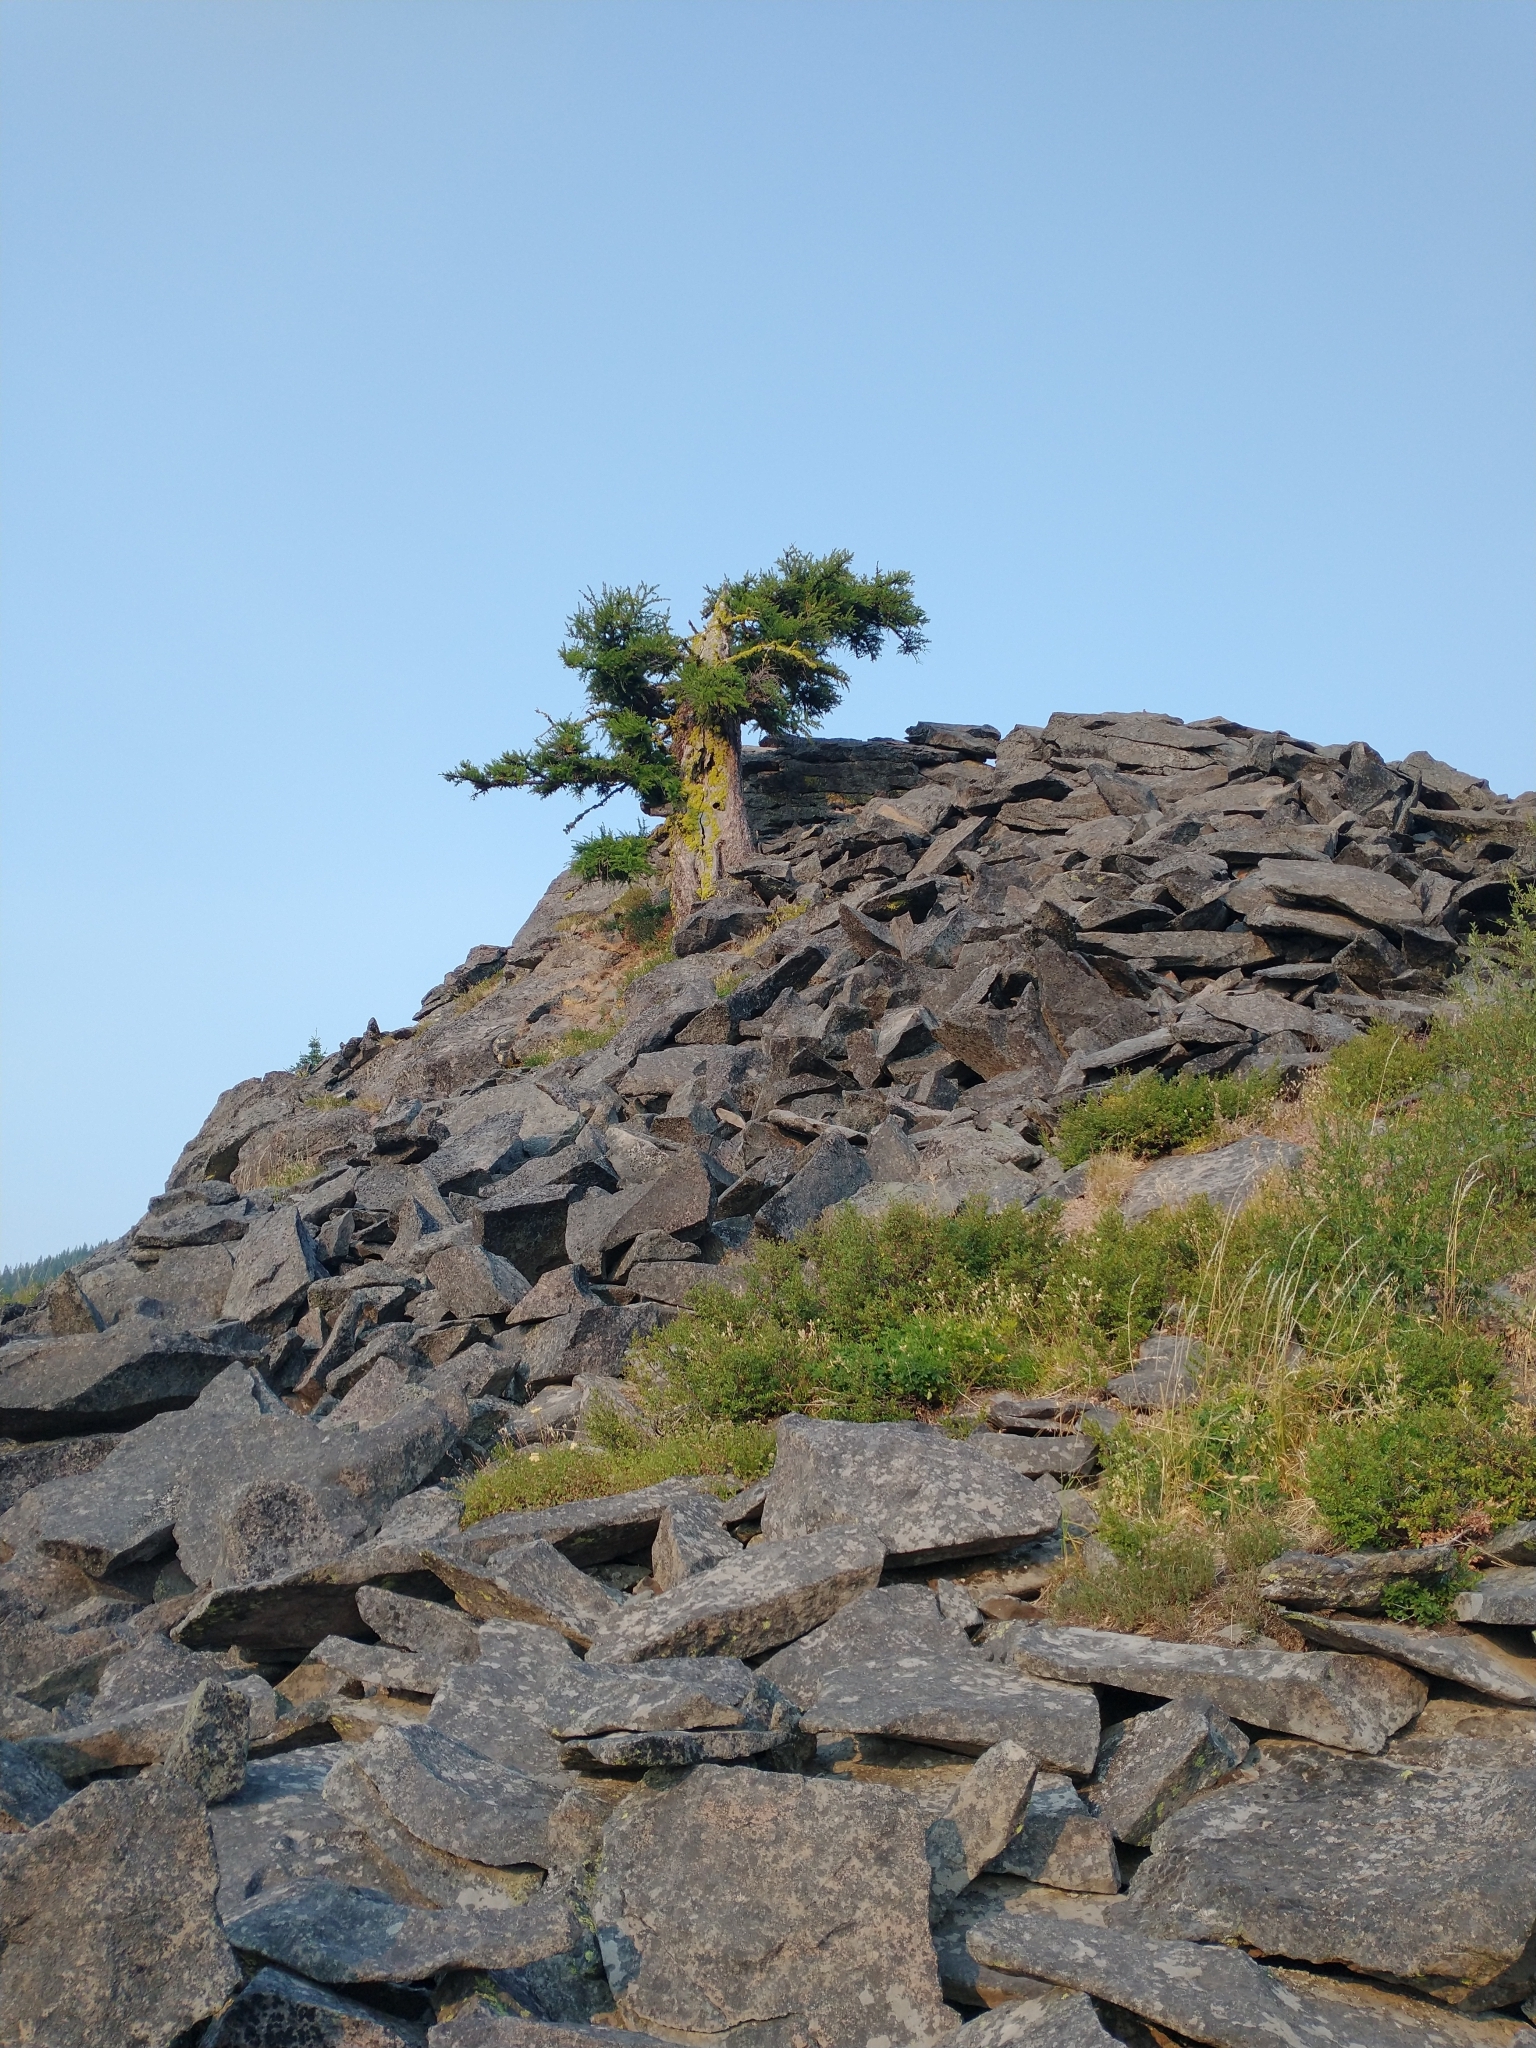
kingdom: Plantae
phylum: Tracheophyta
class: Pinopsida
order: Pinales
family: Pinaceae
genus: Larix
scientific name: Larix occidentalis
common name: Western larch
